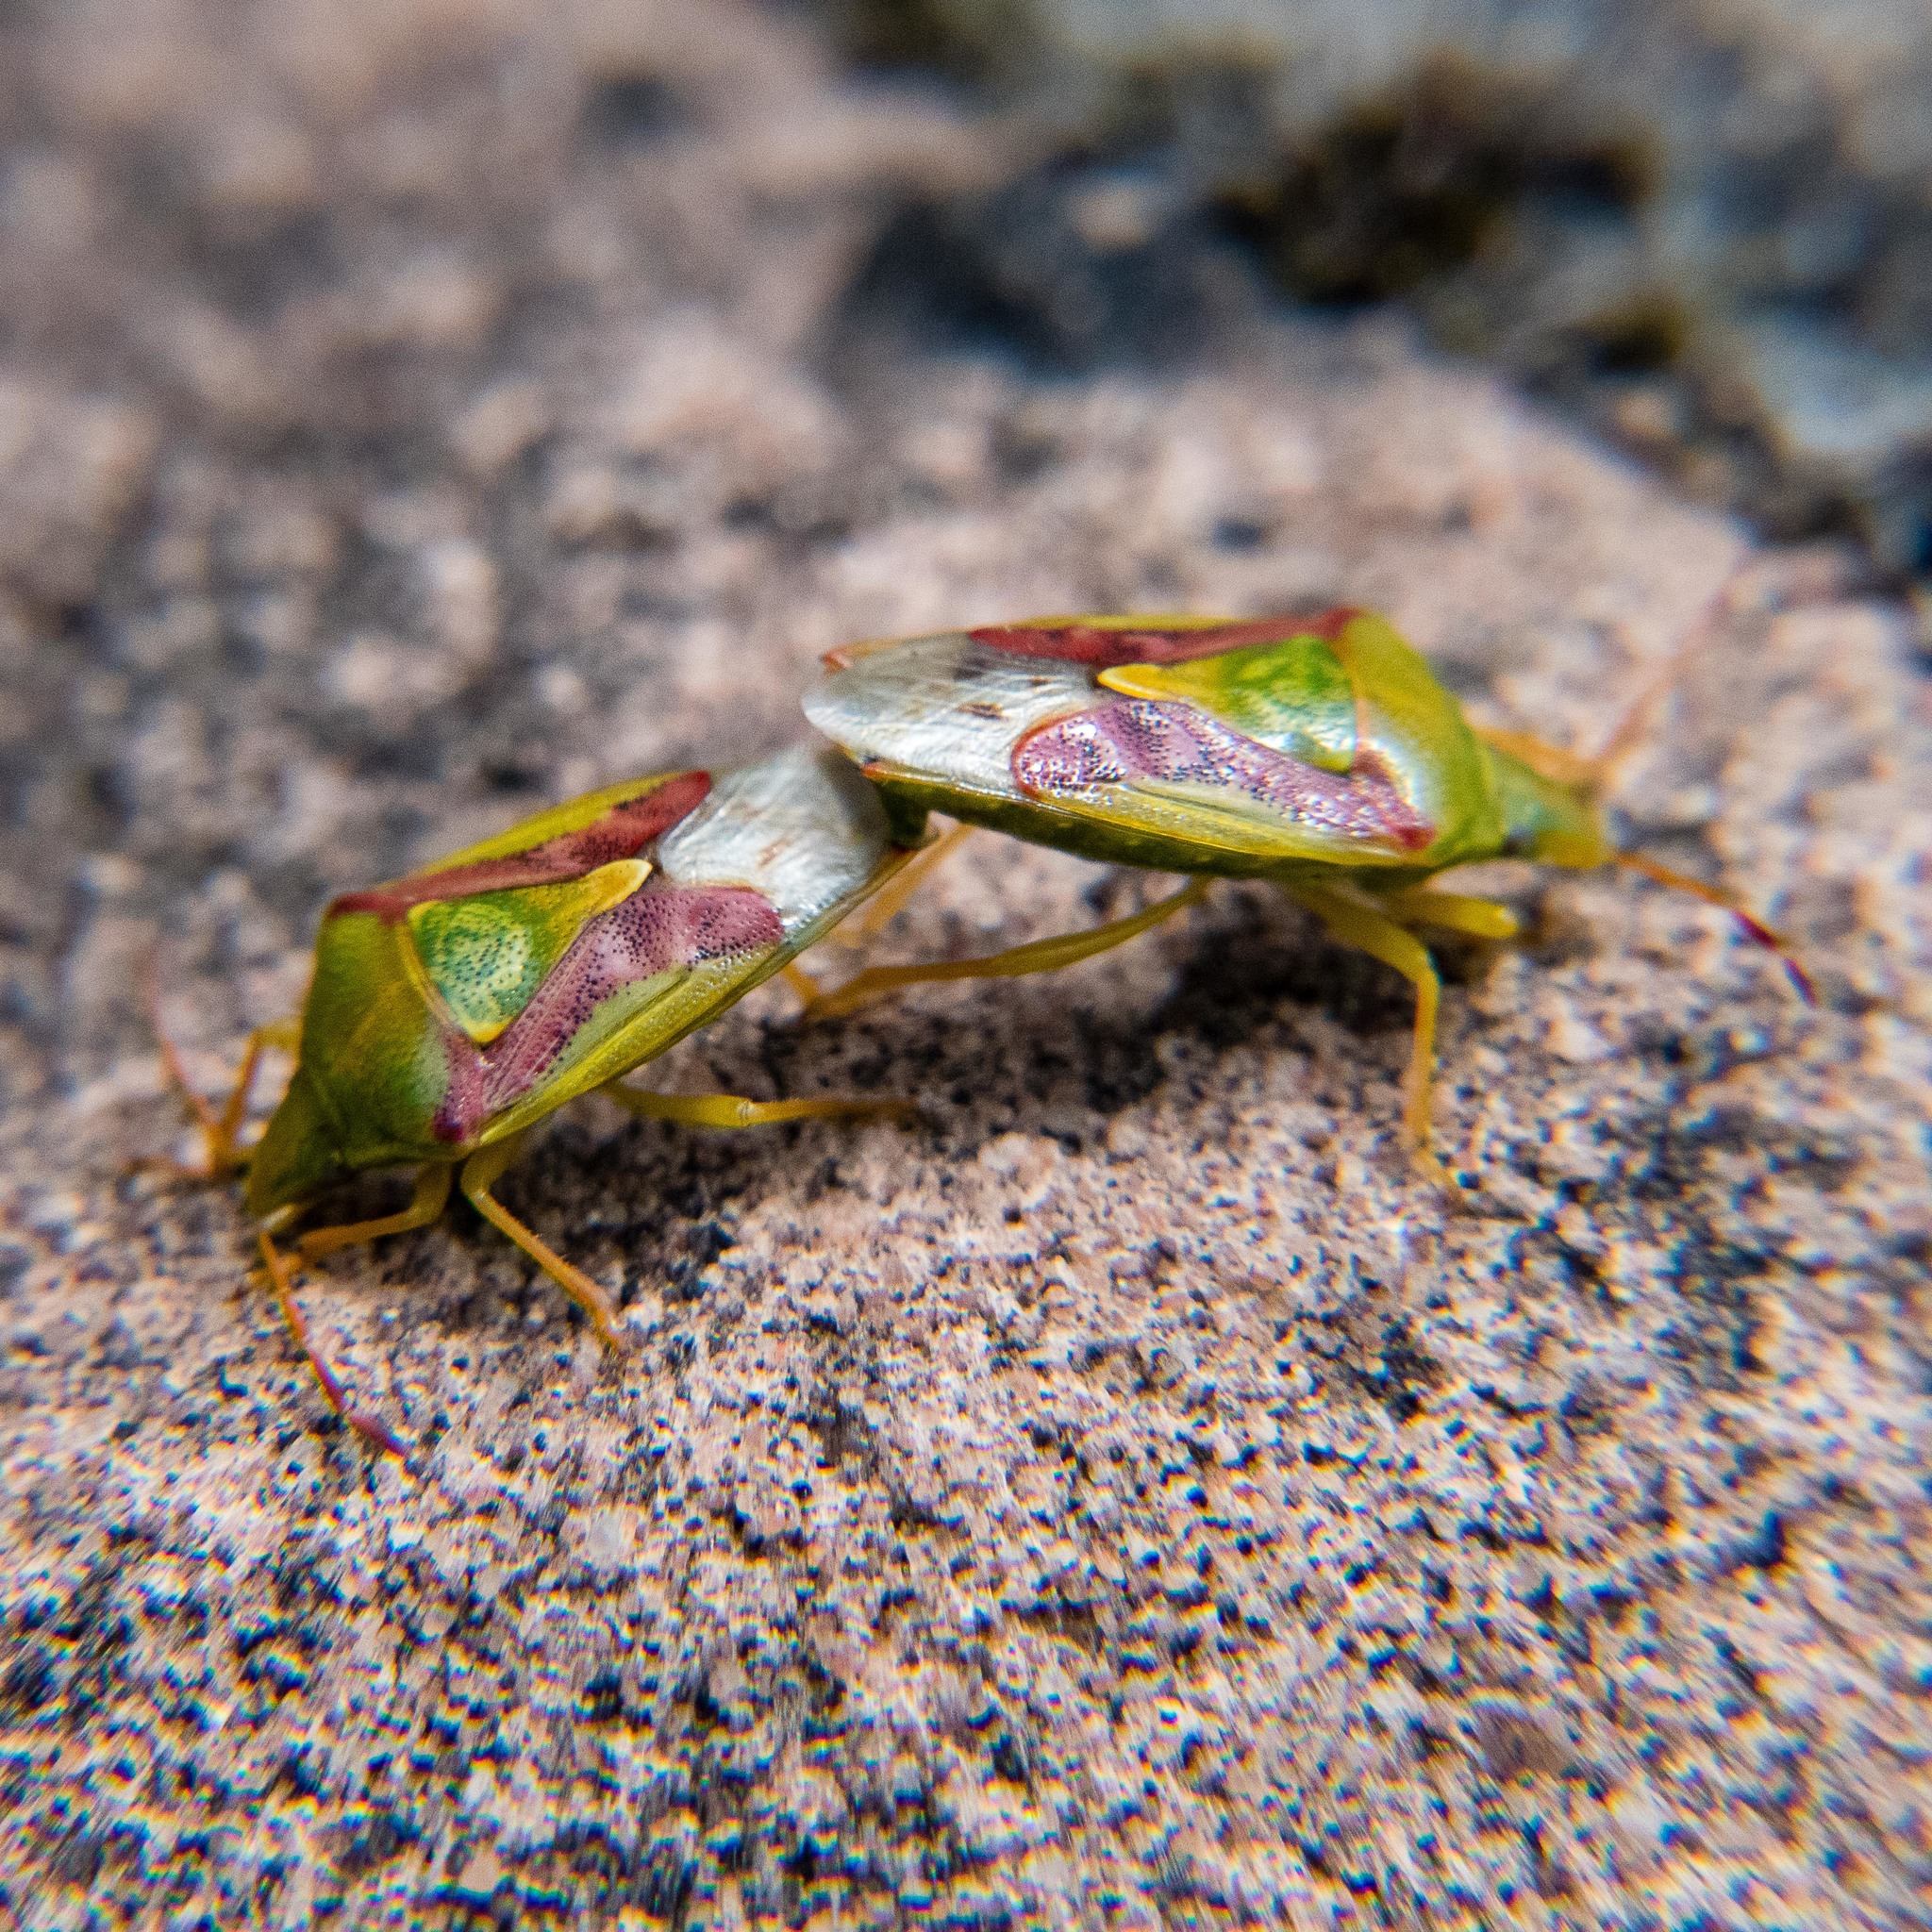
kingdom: Animalia
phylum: Arthropoda
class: Insecta
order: Hemiptera
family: Acanthosomatidae
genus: Cyphostethus
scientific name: Cyphostethus tristriatus
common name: Juniper shieldbug
